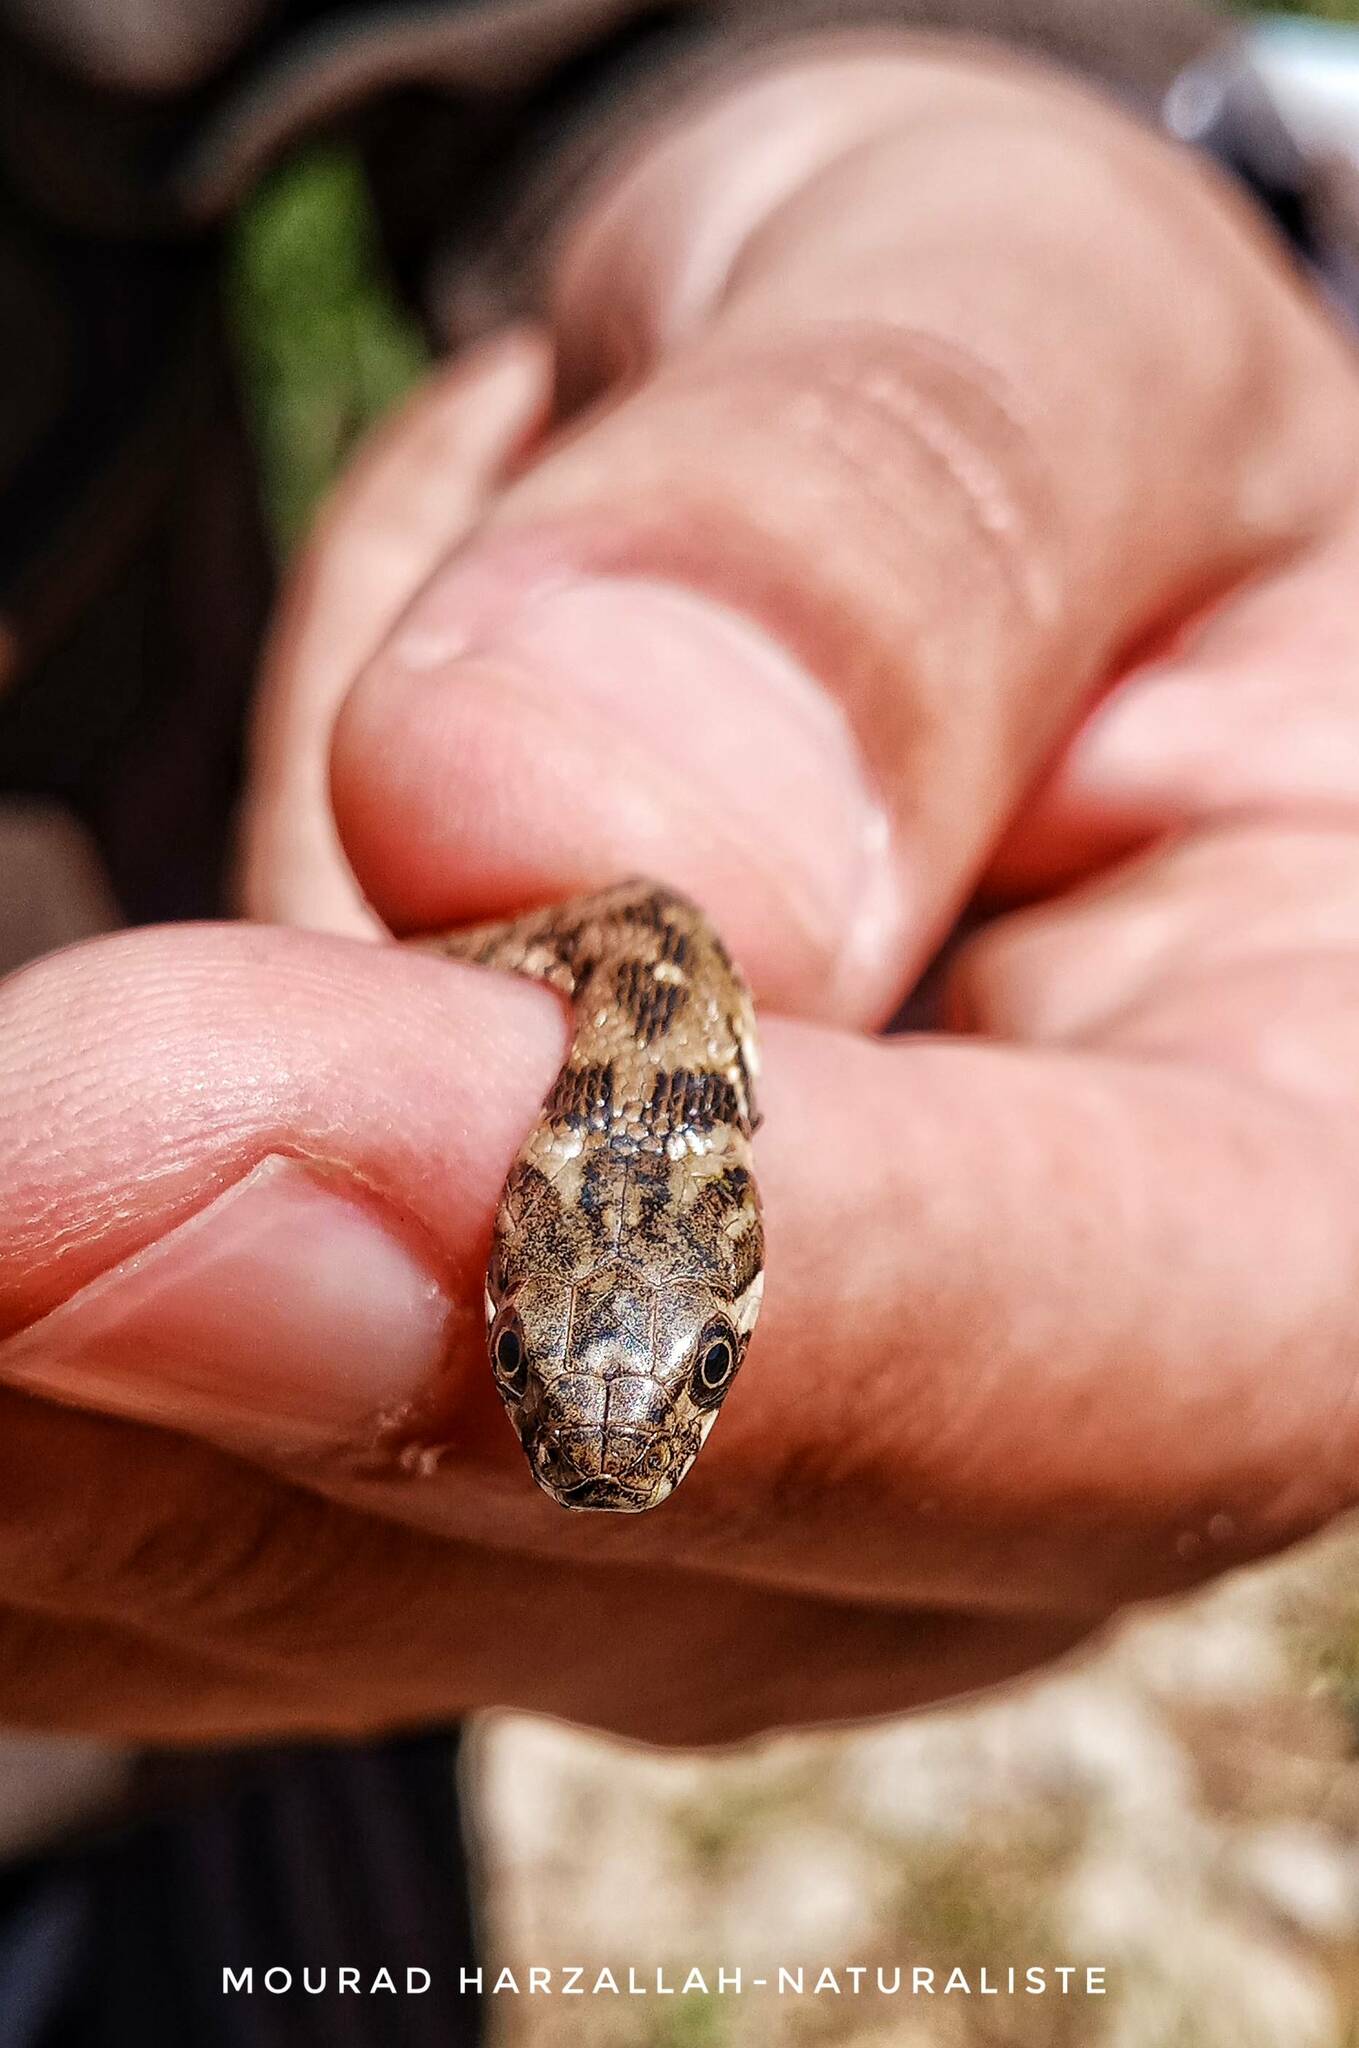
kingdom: Animalia
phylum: Chordata
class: Squamata
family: Colubridae
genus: Natrix
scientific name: Natrix maura
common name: Viperine water snake
